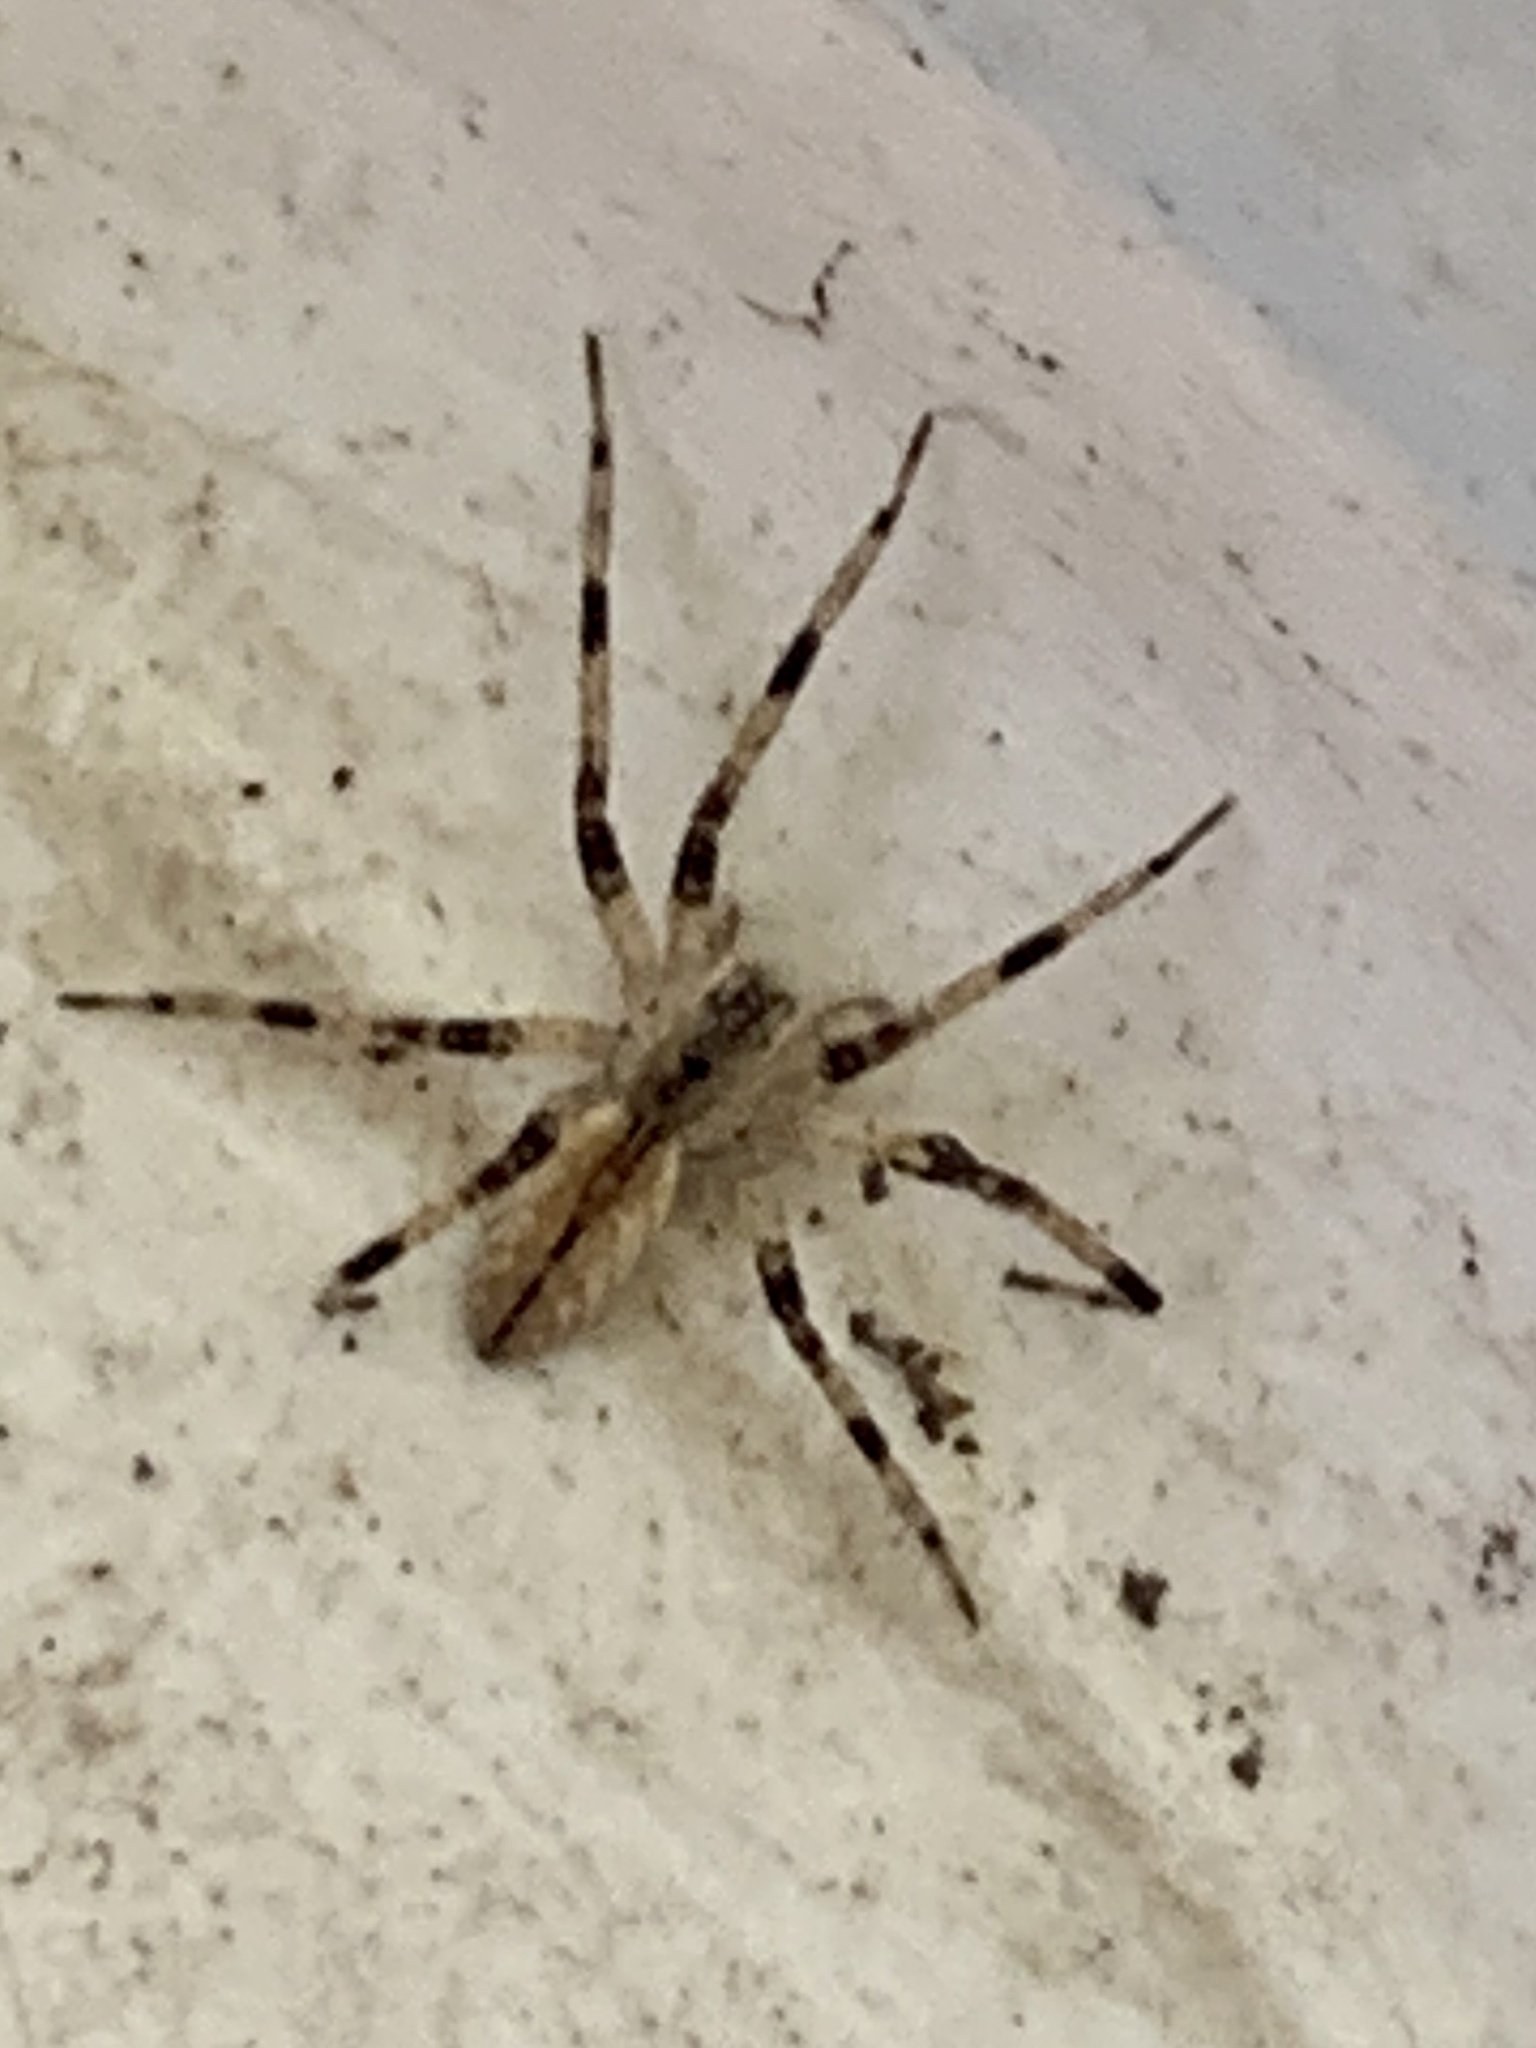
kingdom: Animalia
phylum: Arthropoda
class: Arachnida
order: Araneae
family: Pisauridae
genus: Pisaurina
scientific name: Pisaurina mira
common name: American nursery web spider
